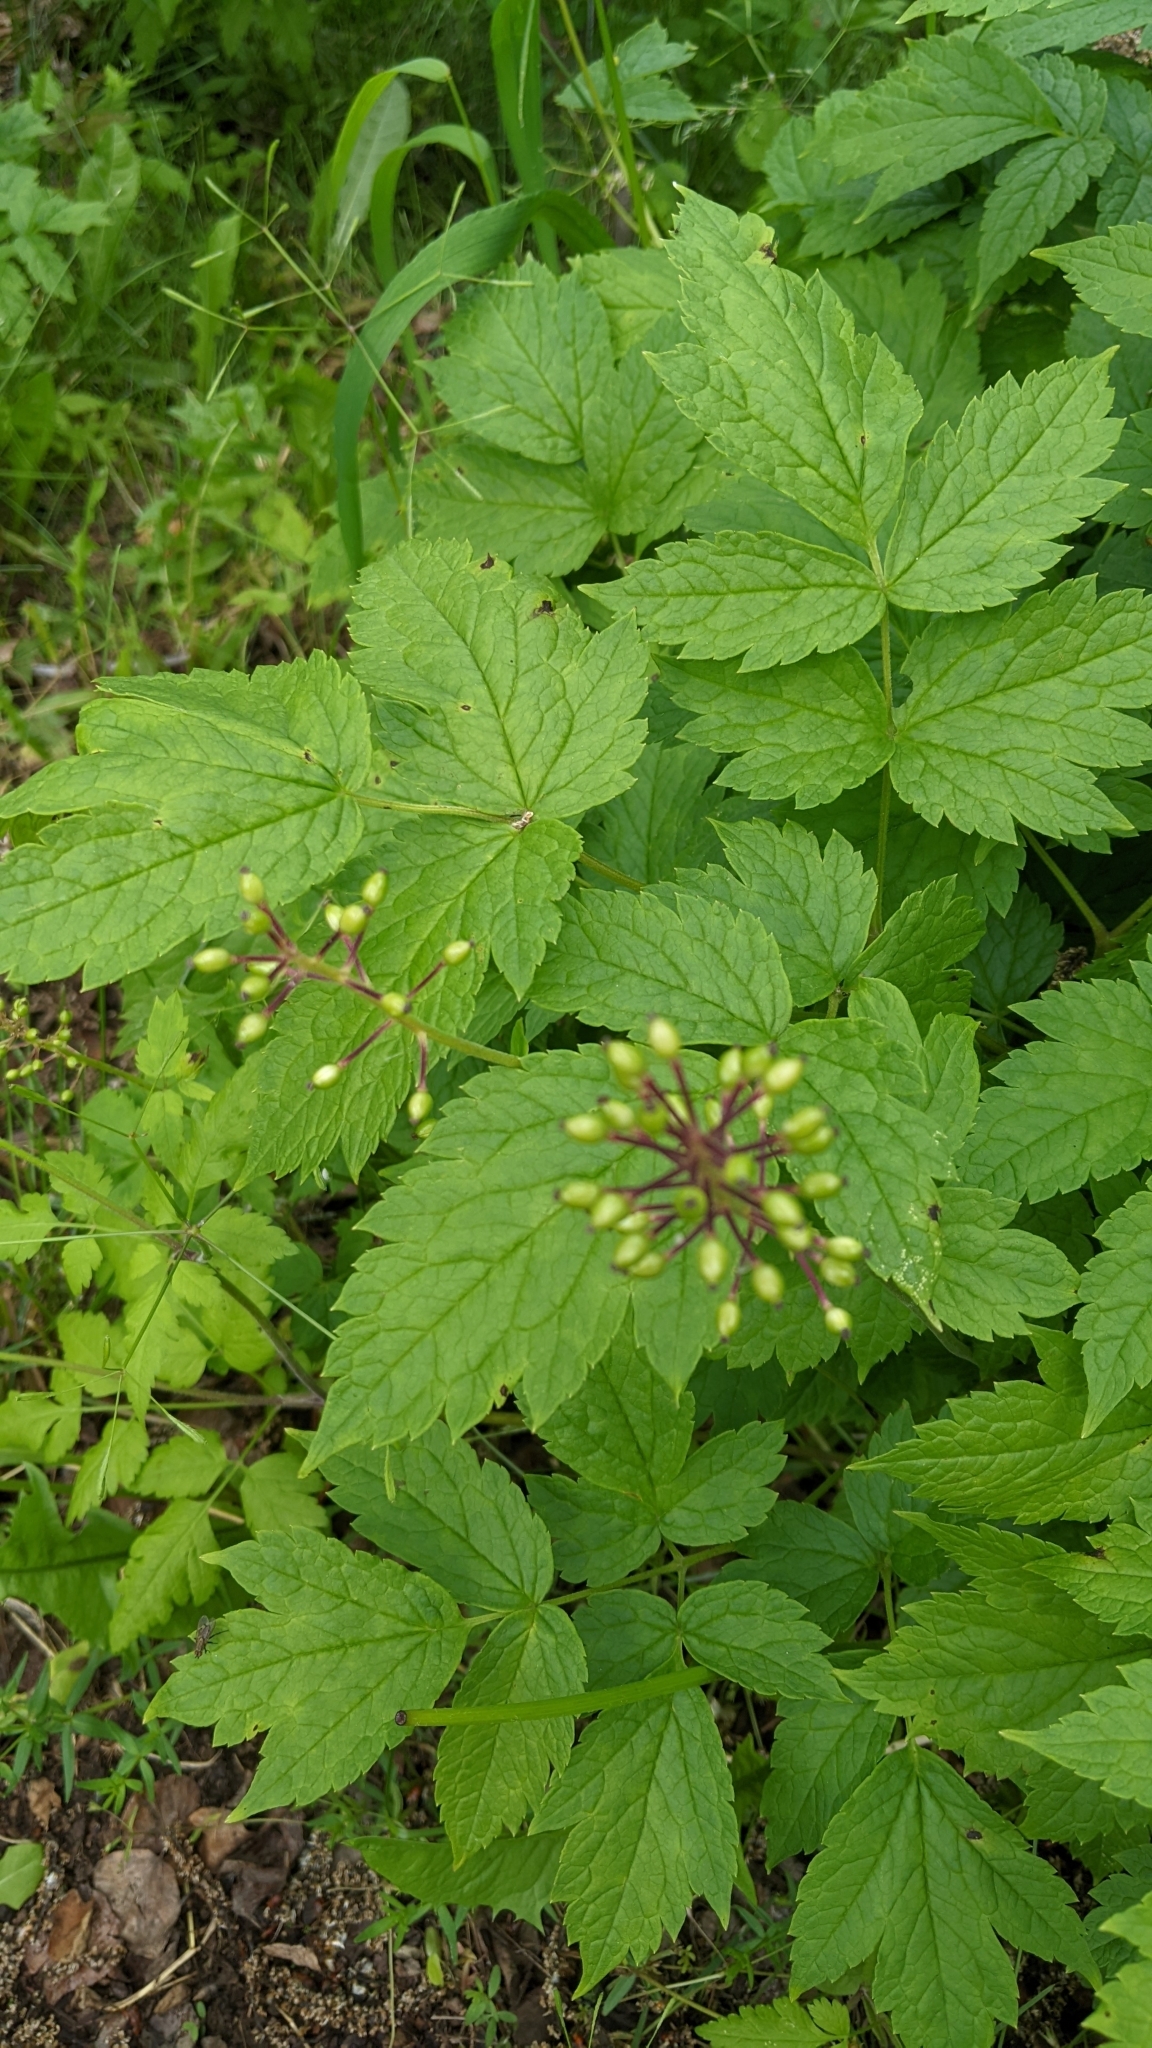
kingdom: Plantae
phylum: Tracheophyta
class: Magnoliopsida
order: Ranunculales
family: Ranunculaceae
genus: Actaea
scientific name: Actaea rubra
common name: Red baneberry
